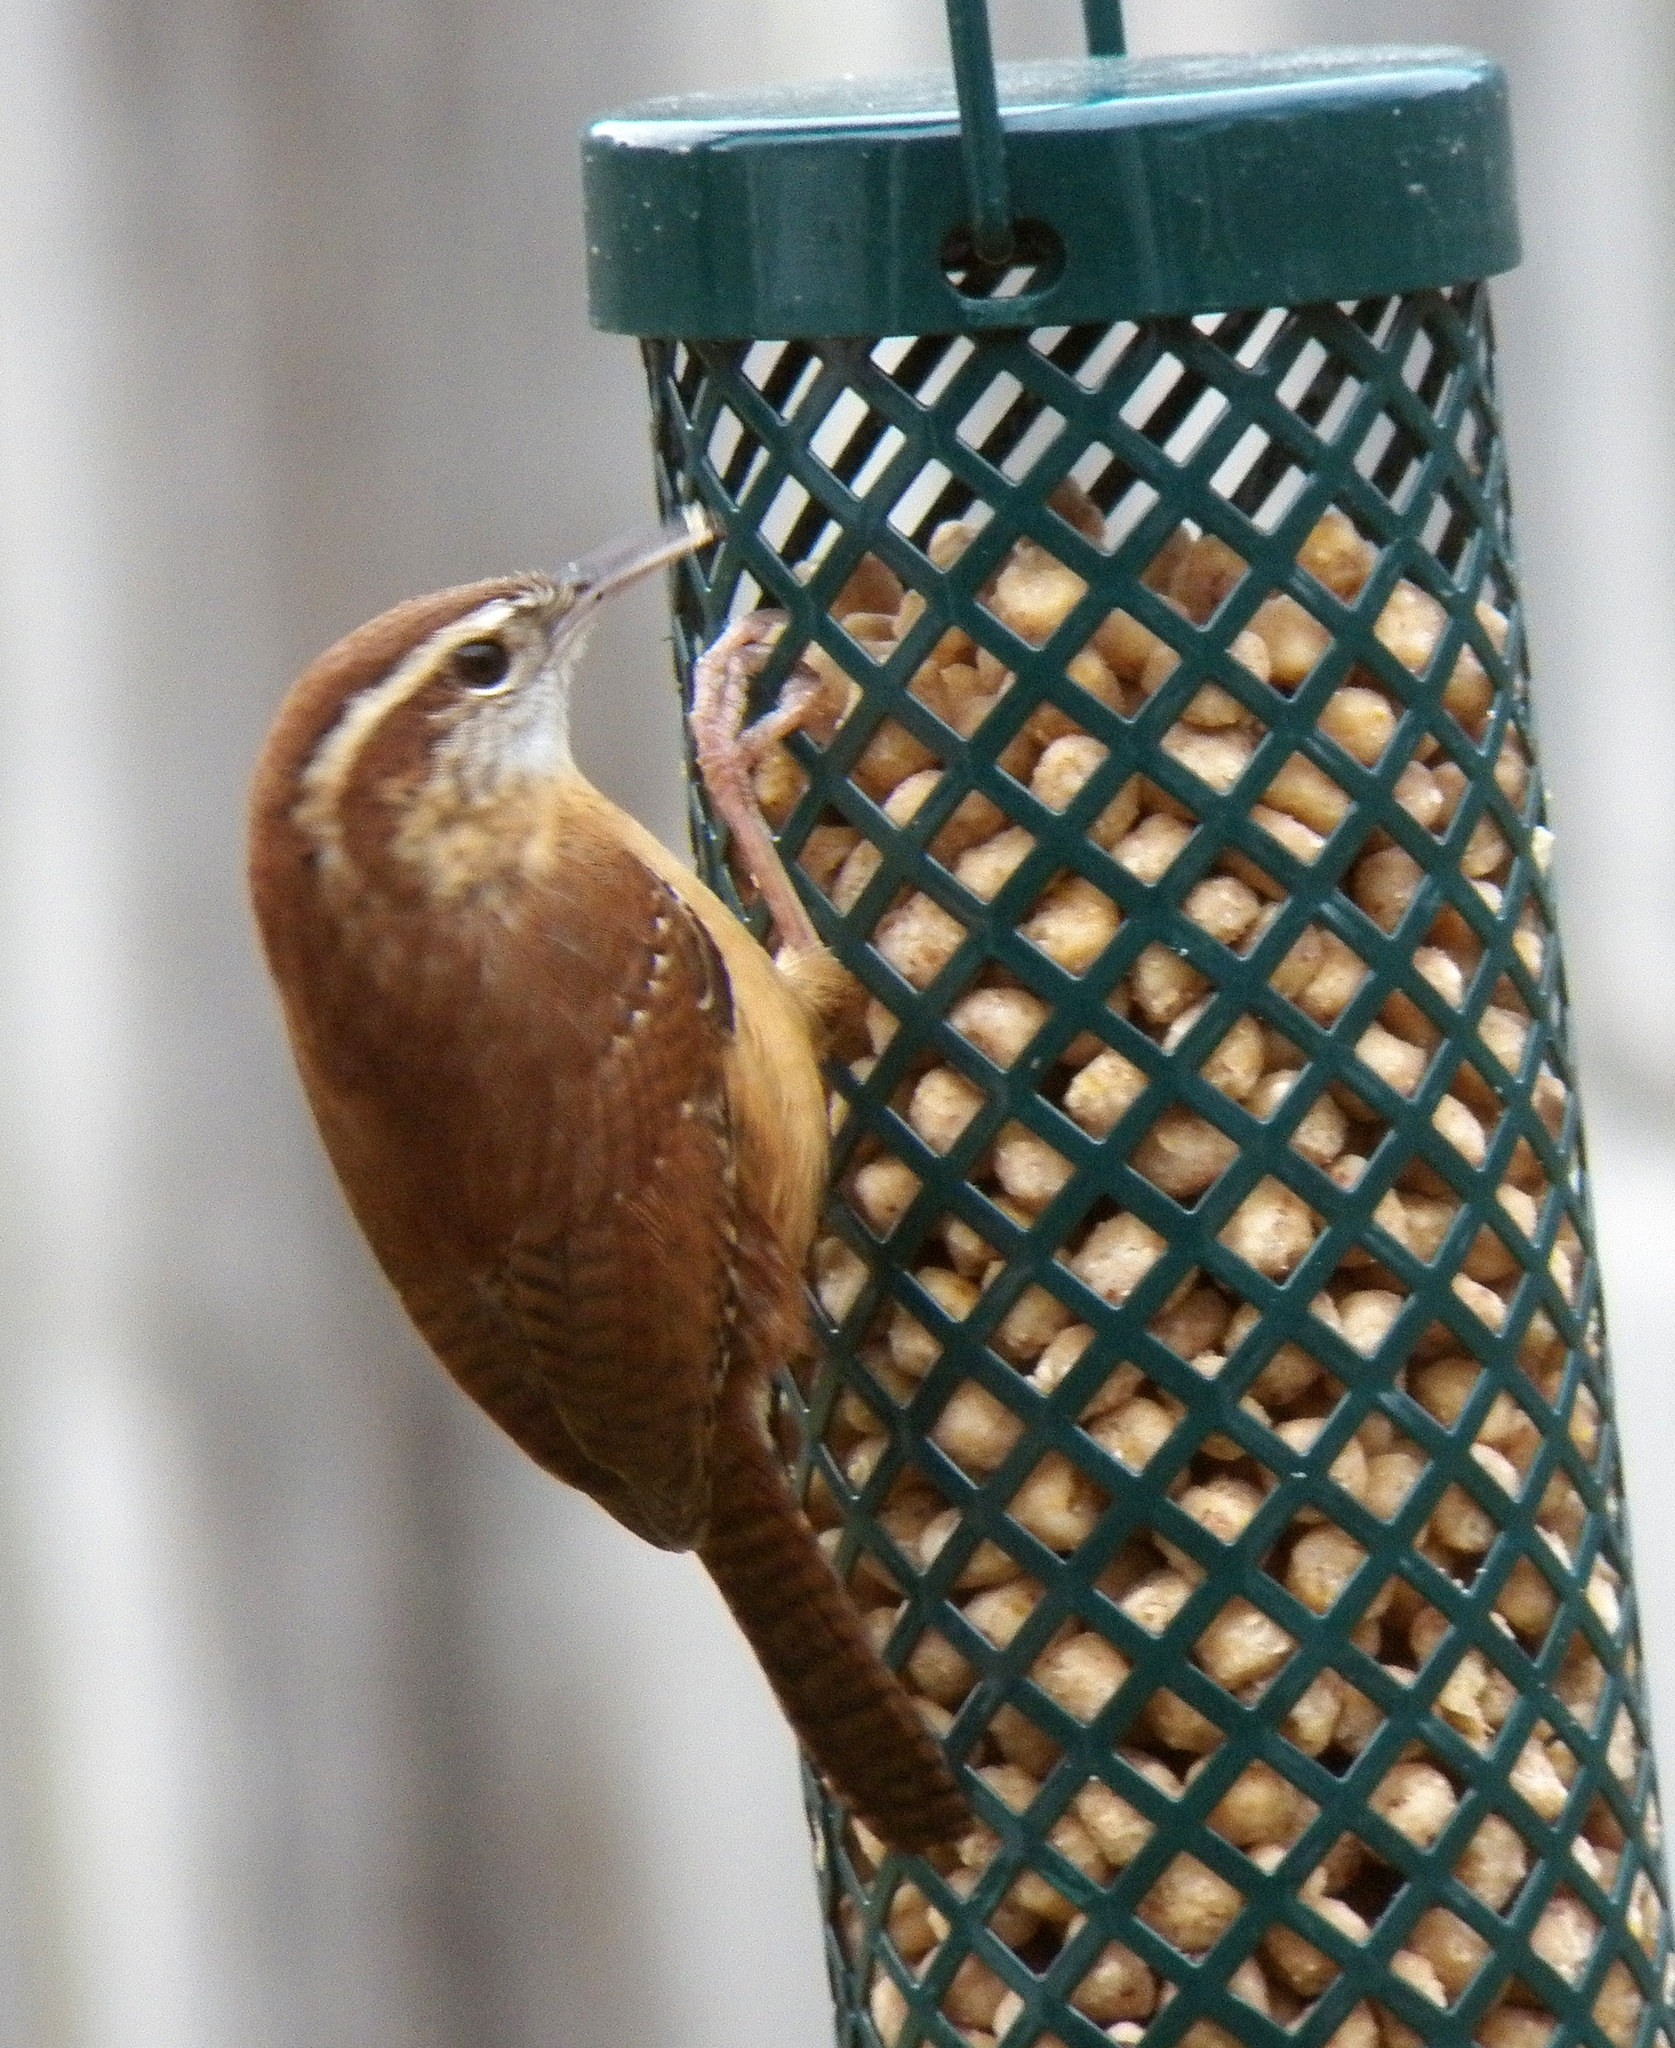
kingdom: Animalia
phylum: Chordata
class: Aves
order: Passeriformes
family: Troglodytidae
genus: Thryothorus
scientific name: Thryothorus ludovicianus
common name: Carolina wren
